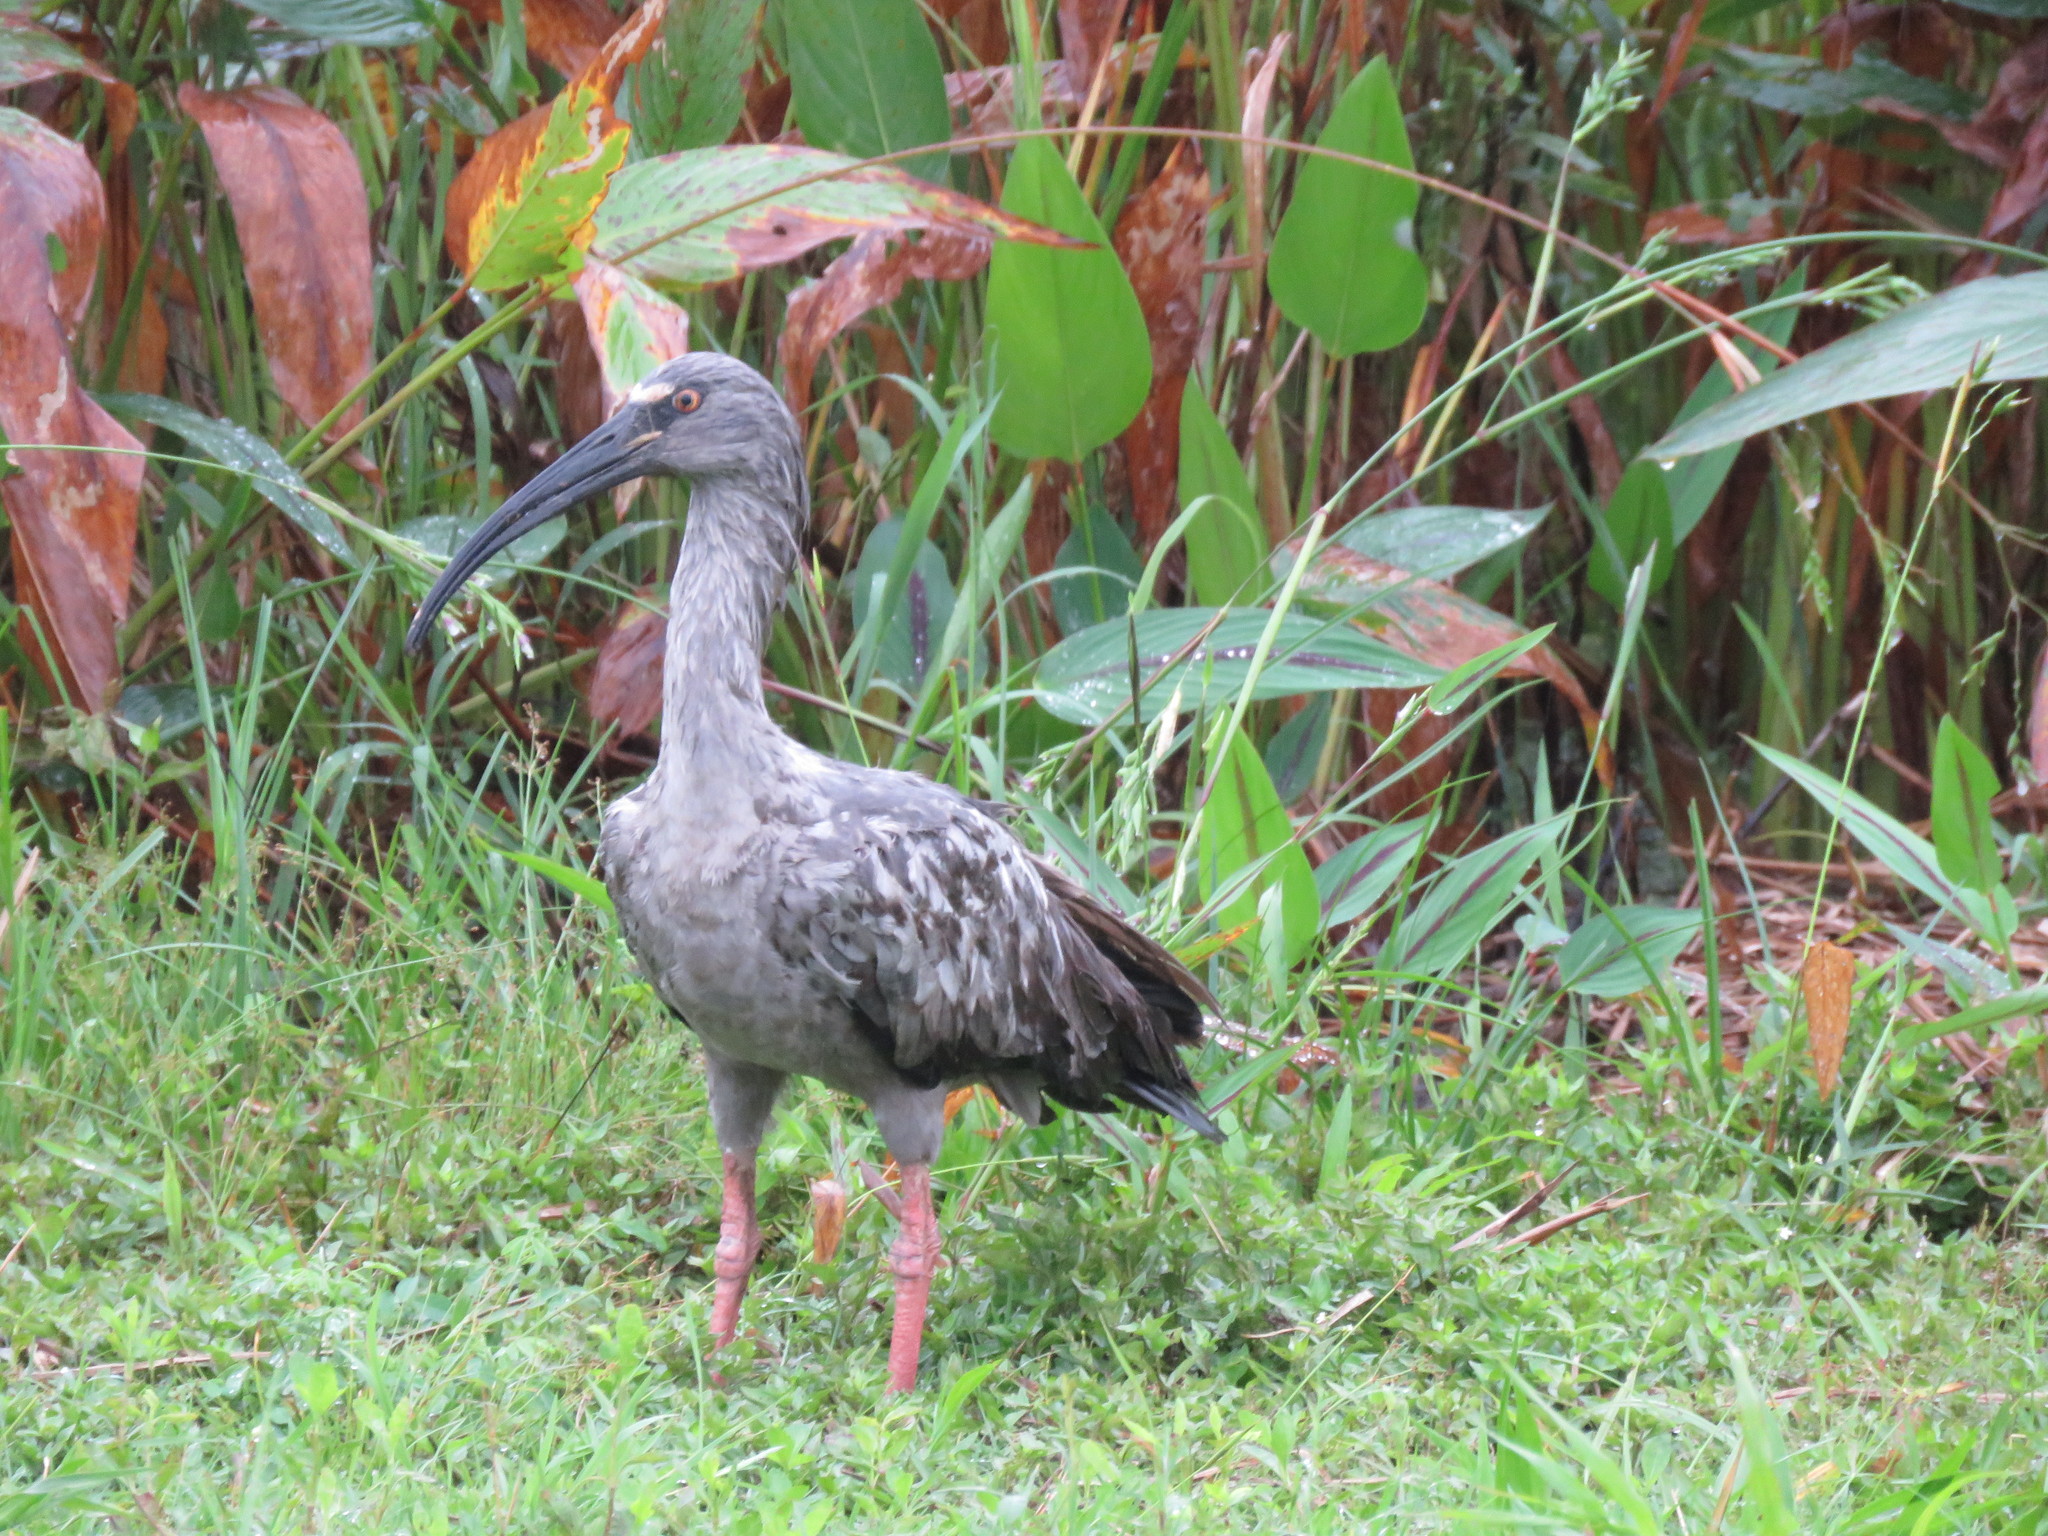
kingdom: Animalia
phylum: Chordata
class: Aves
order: Pelecaniformes
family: Threskiornithidae
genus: Theristicus
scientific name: Theristicus caerulescens
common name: Plumbeous ibis
